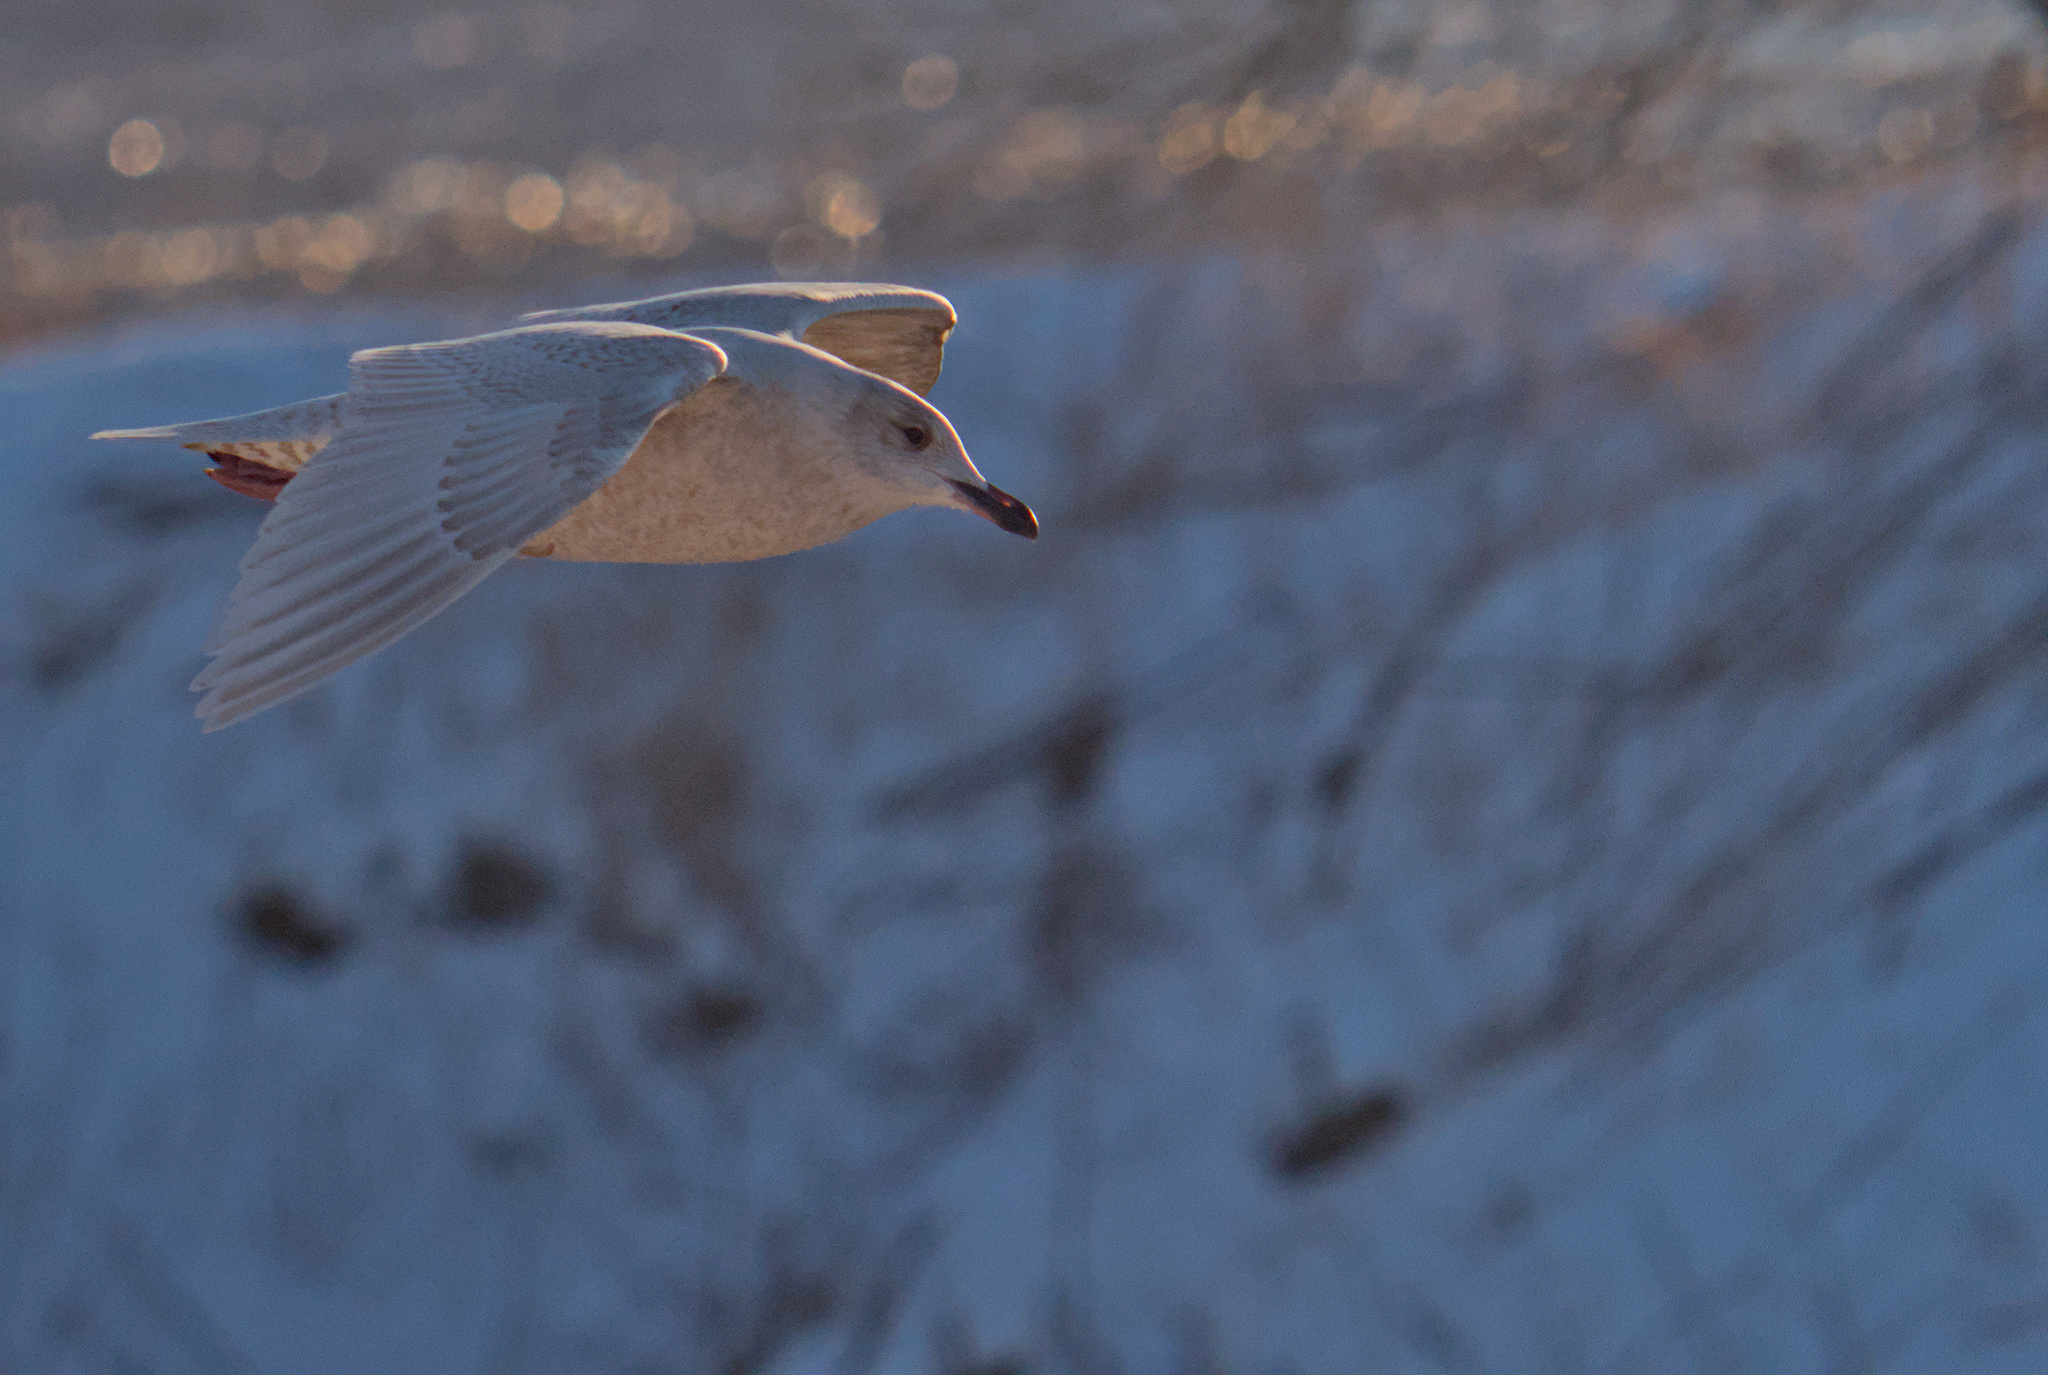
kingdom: Animalia
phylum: Chordata
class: Aves
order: Charadriiformes
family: Laridae
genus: Larus
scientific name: Larus glaucoides
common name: Iceland gull
